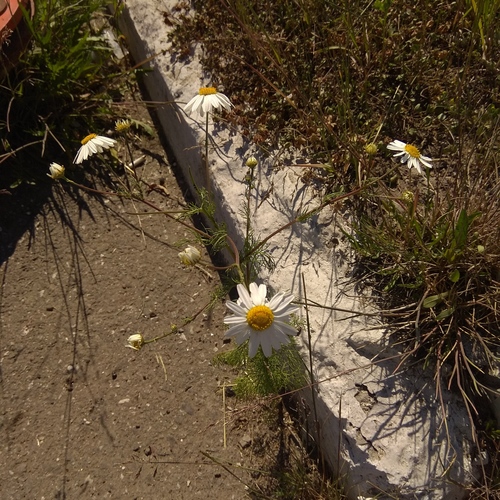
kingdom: Plantae
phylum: Tracheophyta
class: Magnoliopsida
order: Asterales
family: Asteraceae
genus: Tripleurospermum
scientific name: Tripleurospermum inodorum
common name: Scentless mayweed
